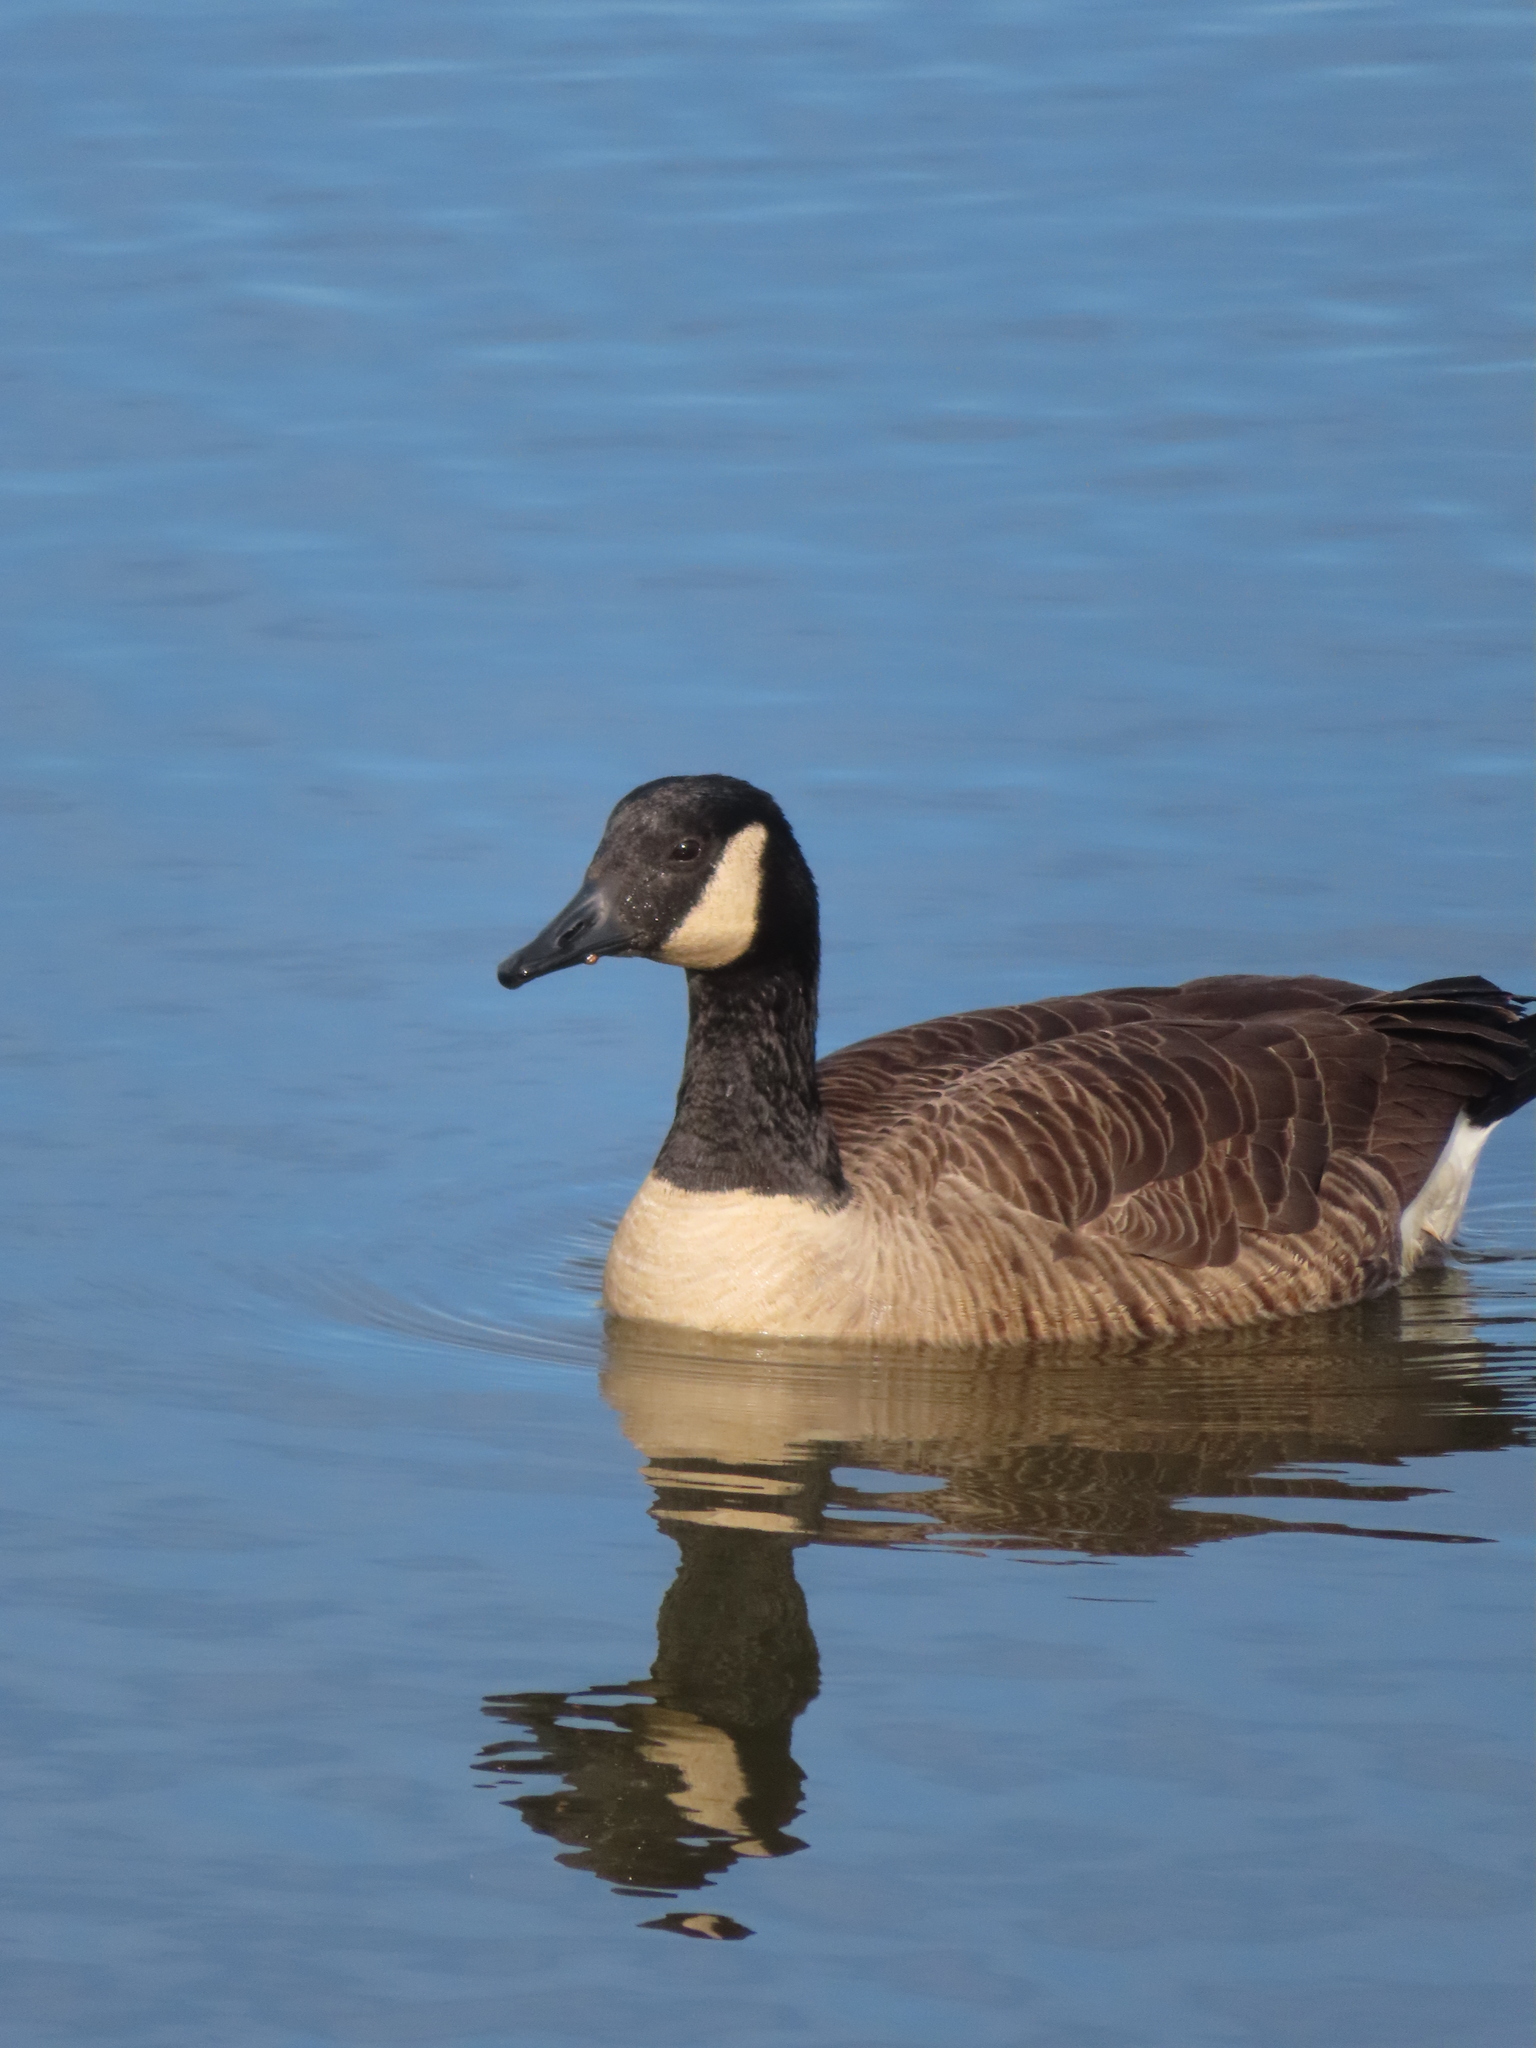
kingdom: Animalia
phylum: Chordata
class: Aves
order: Anseriformes
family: Anatidae
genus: Branta
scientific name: Branta canadensis
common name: Canada goose
